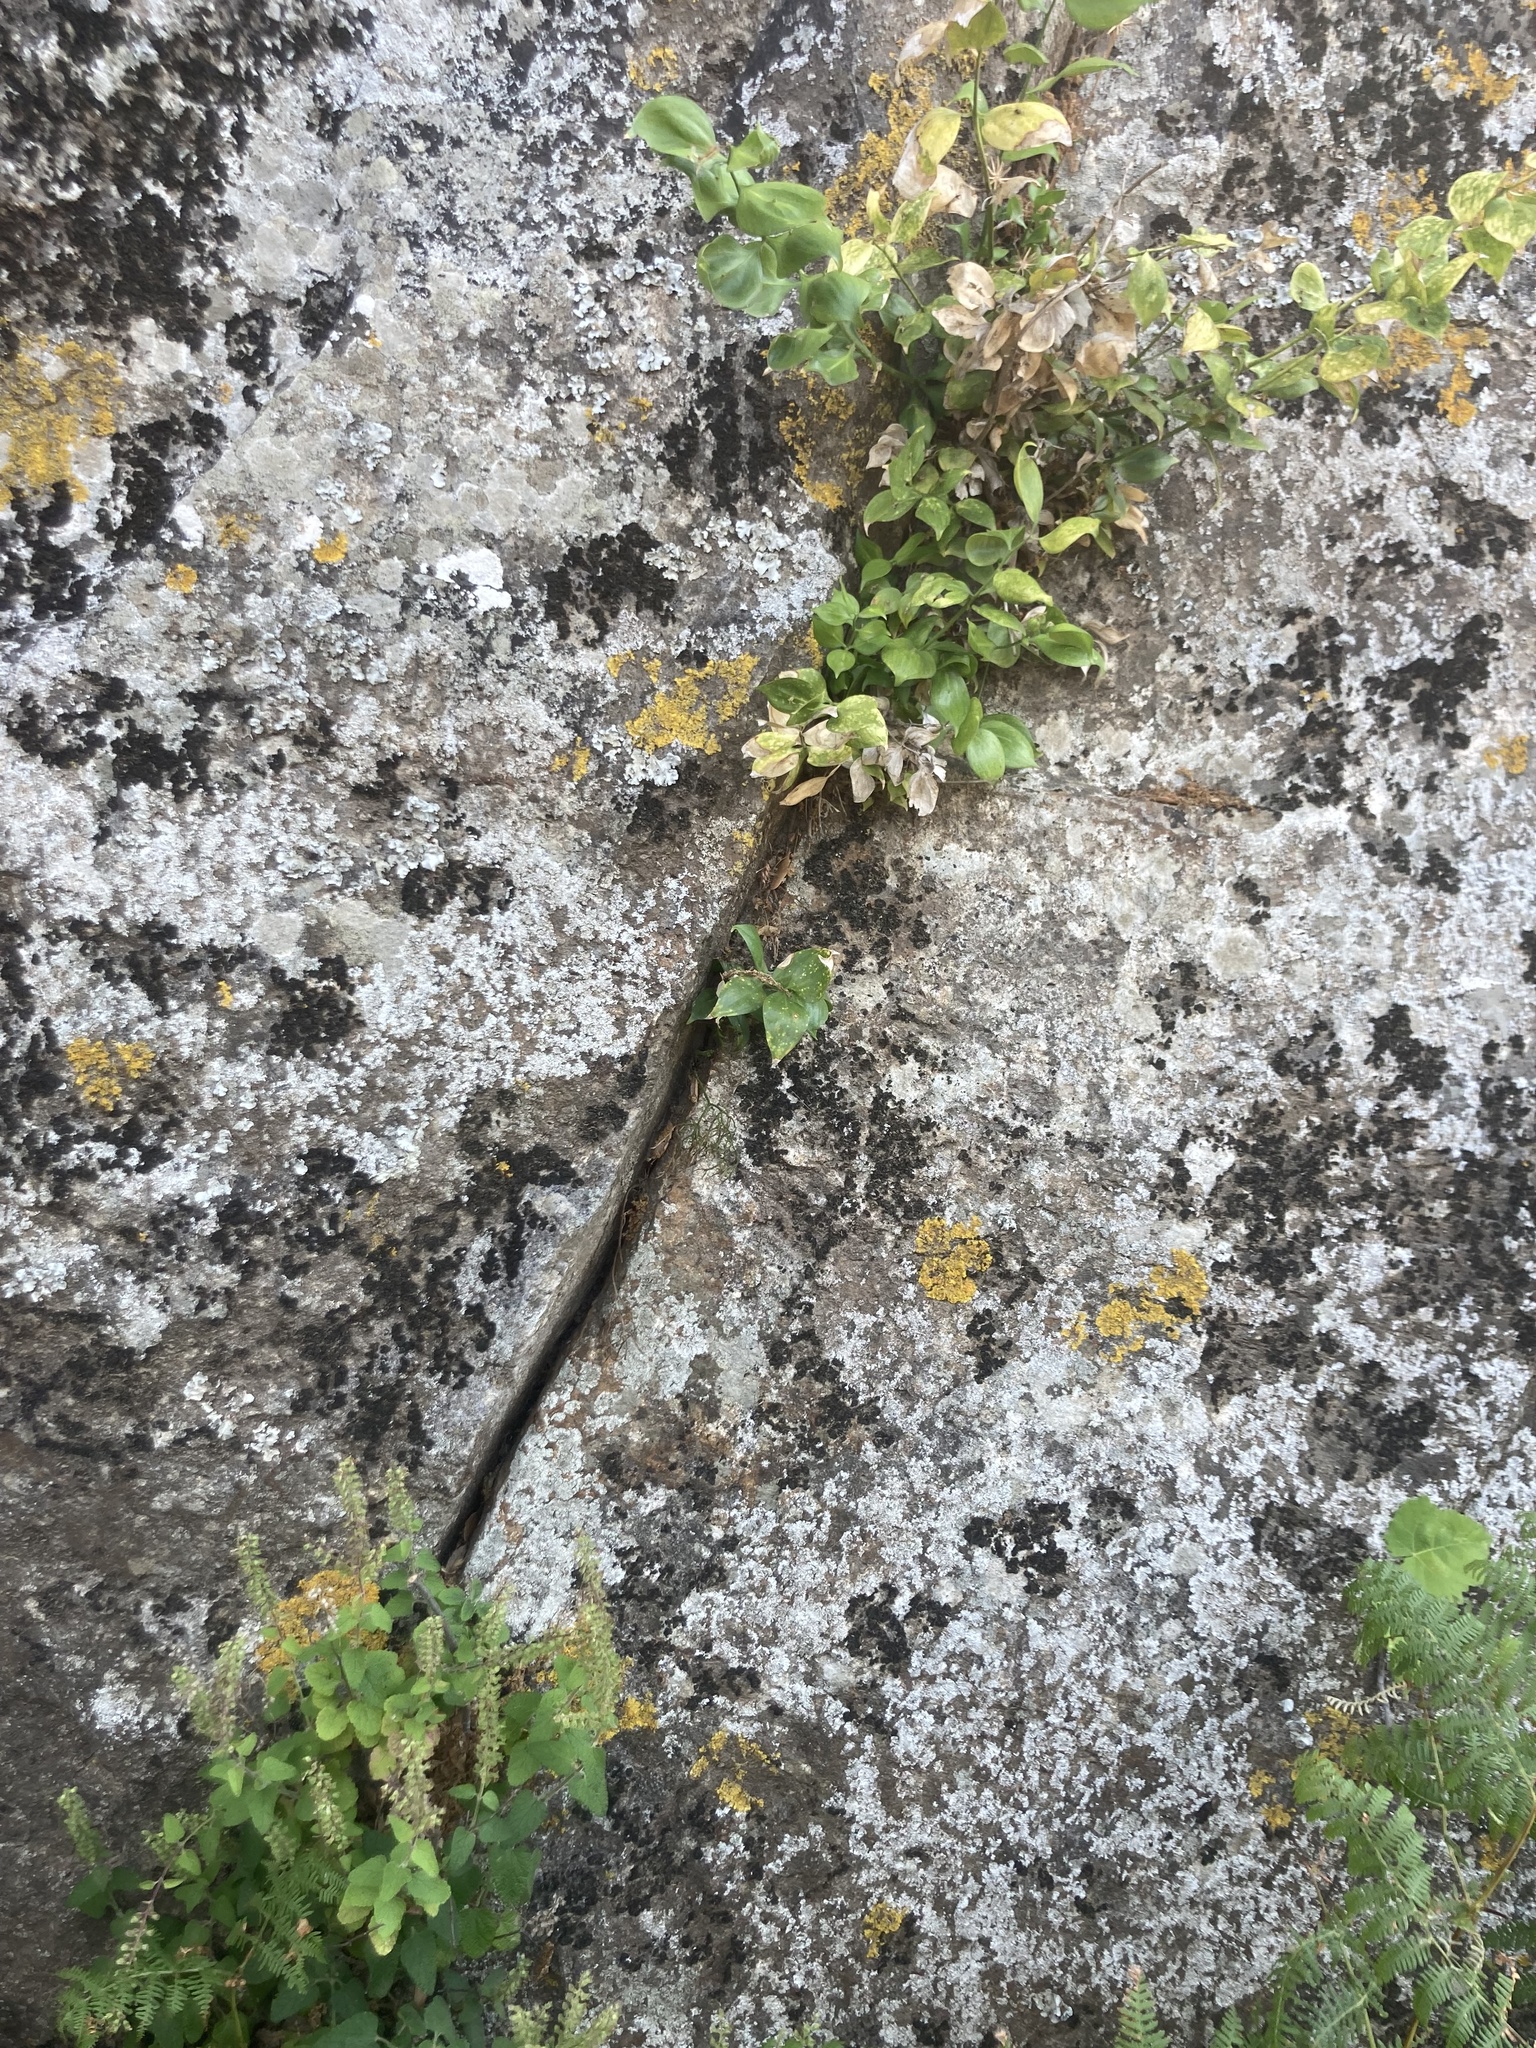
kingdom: Plantae
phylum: Tracheophyta
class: Liliopsida
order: Asparagales
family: Asparagaceae
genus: Ruscus
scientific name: Ruscus hypophyllum
